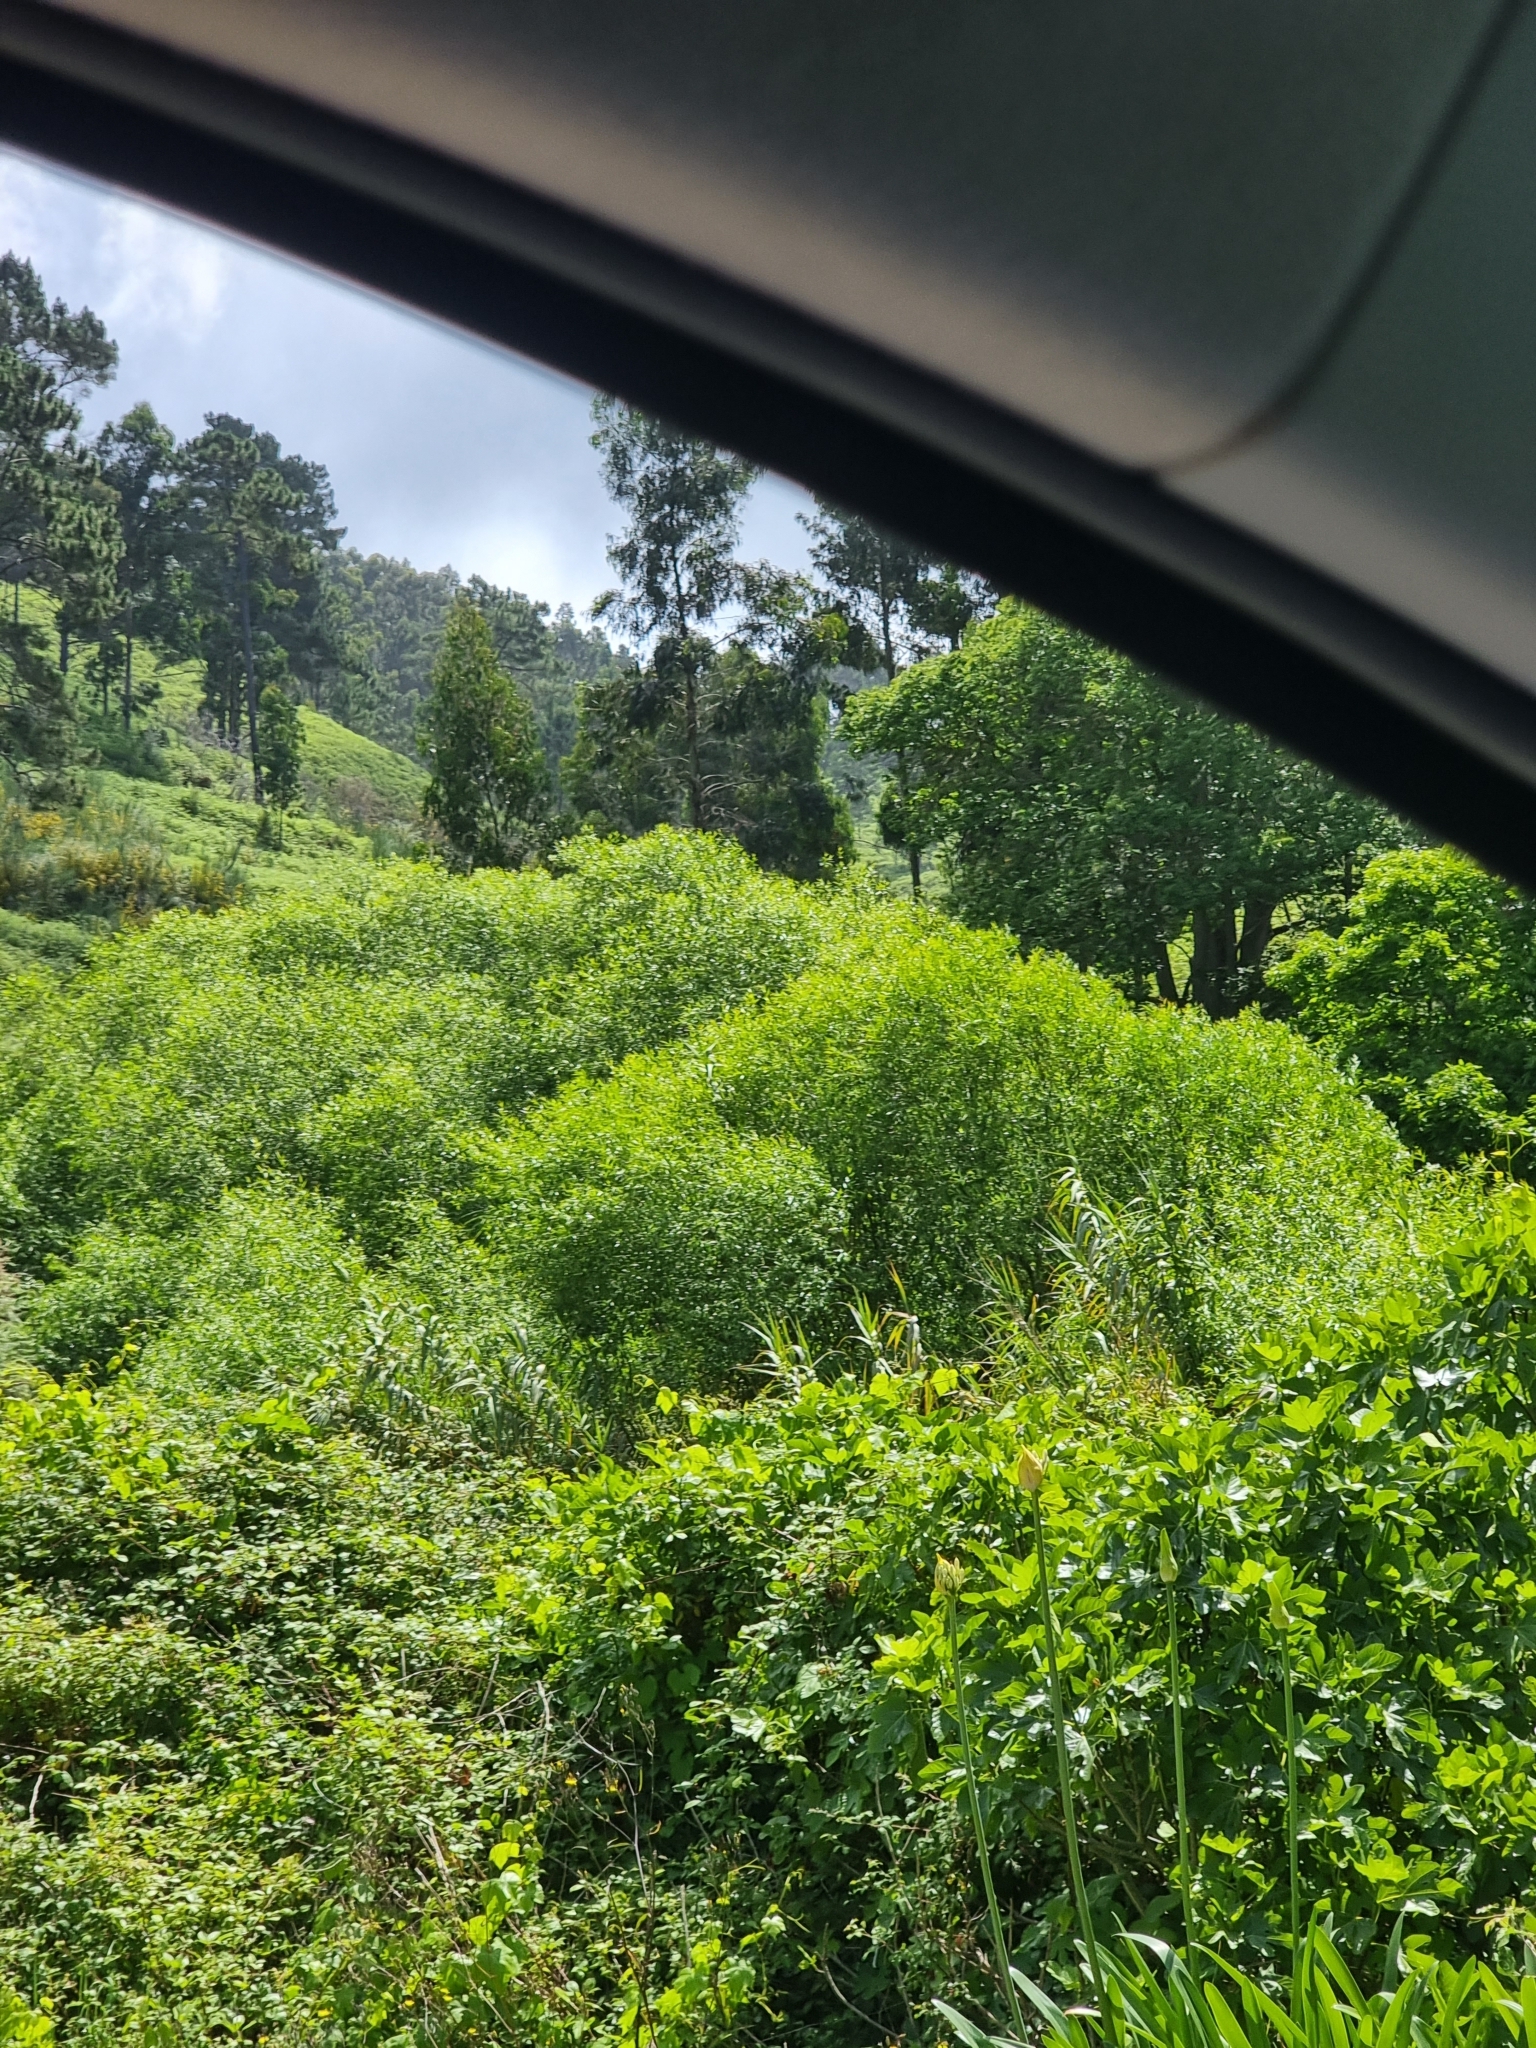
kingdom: Plantae
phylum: Tracheophyta
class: Magnoliopsida
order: Malpighiales
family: Salicaceae
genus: Salix
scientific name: Salix canariensis
